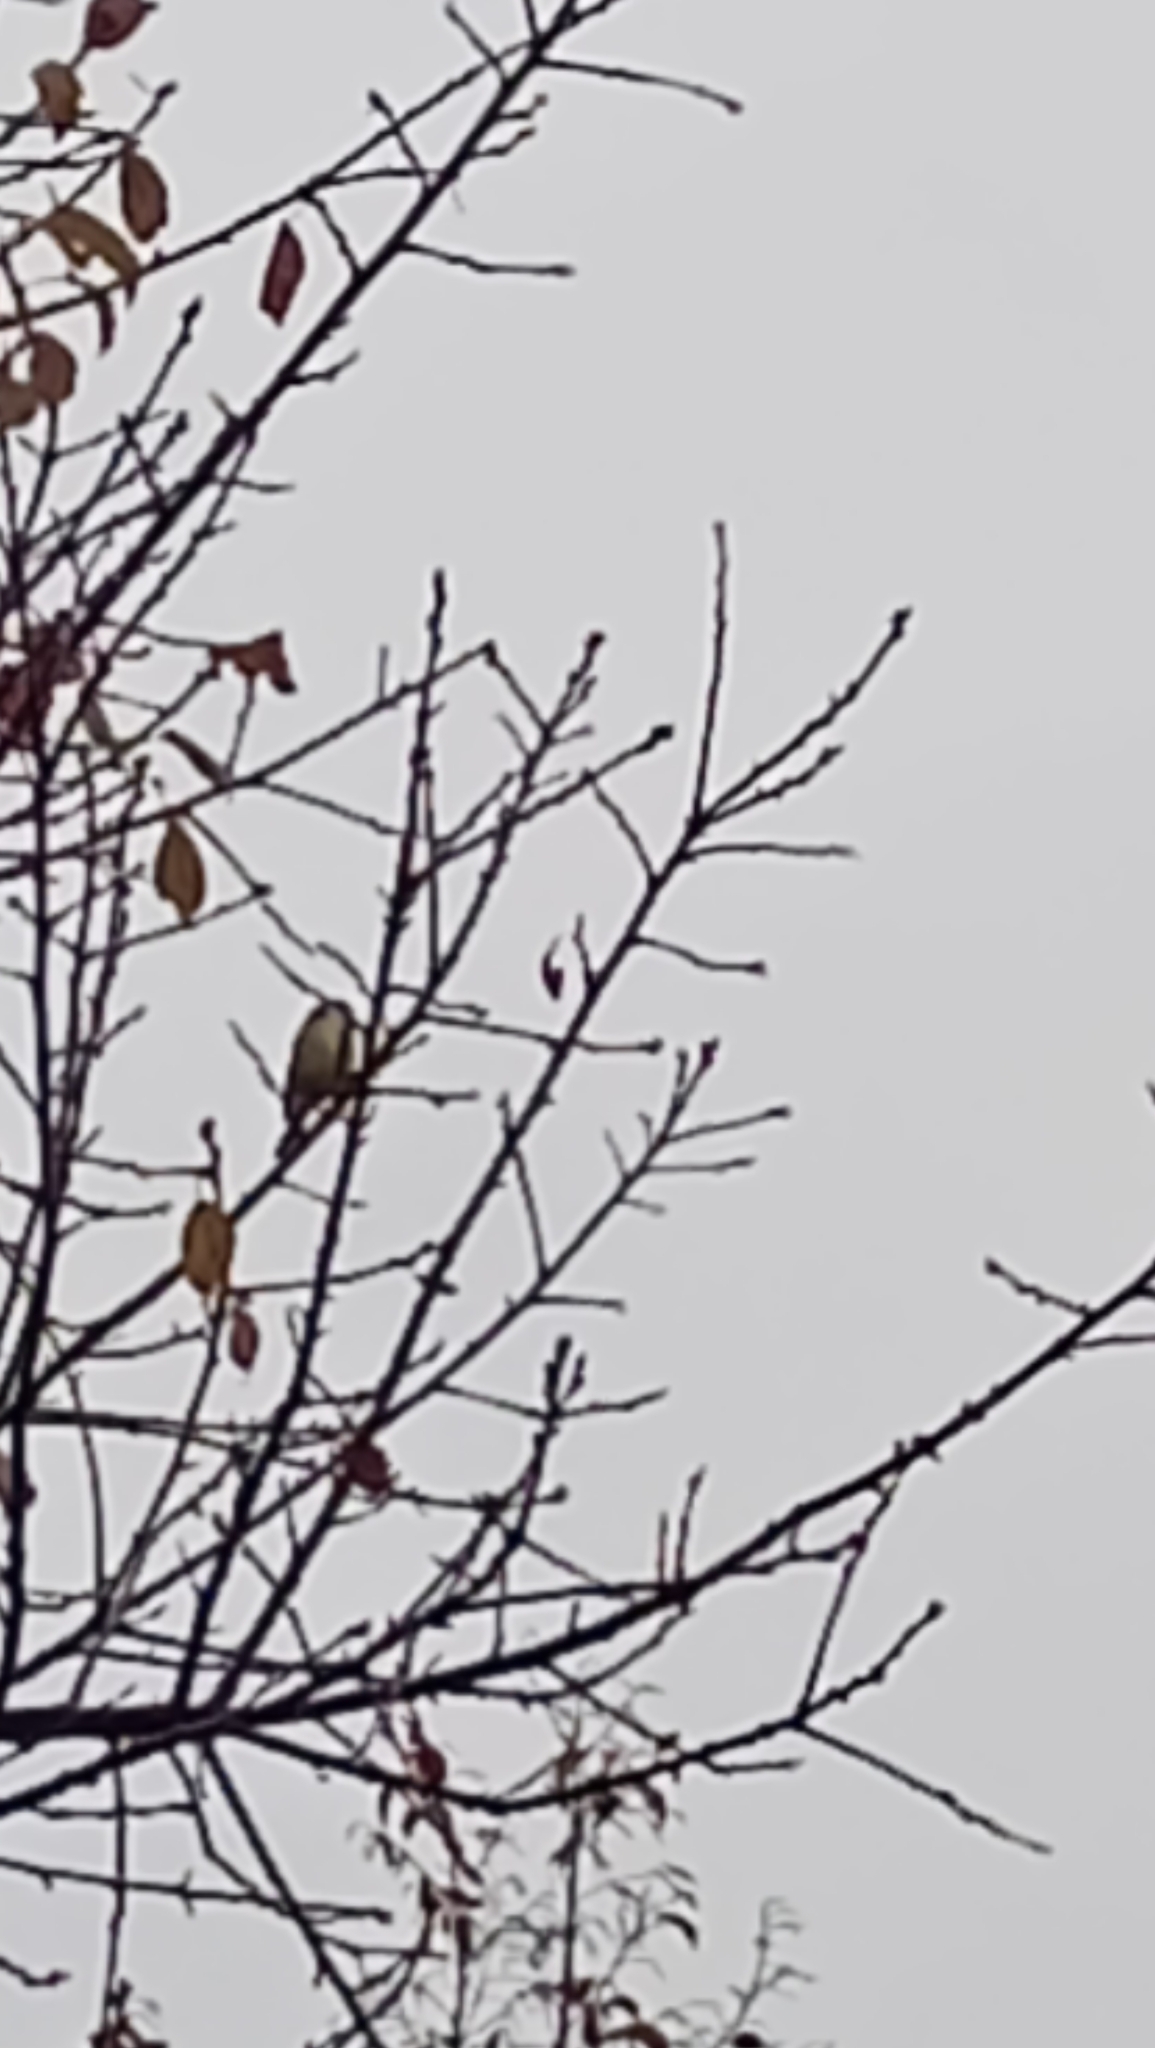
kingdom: Animalia
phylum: Chordata
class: Aves
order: Passeriformes
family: Paridae
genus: Parus
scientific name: Parus major
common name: Great tit
